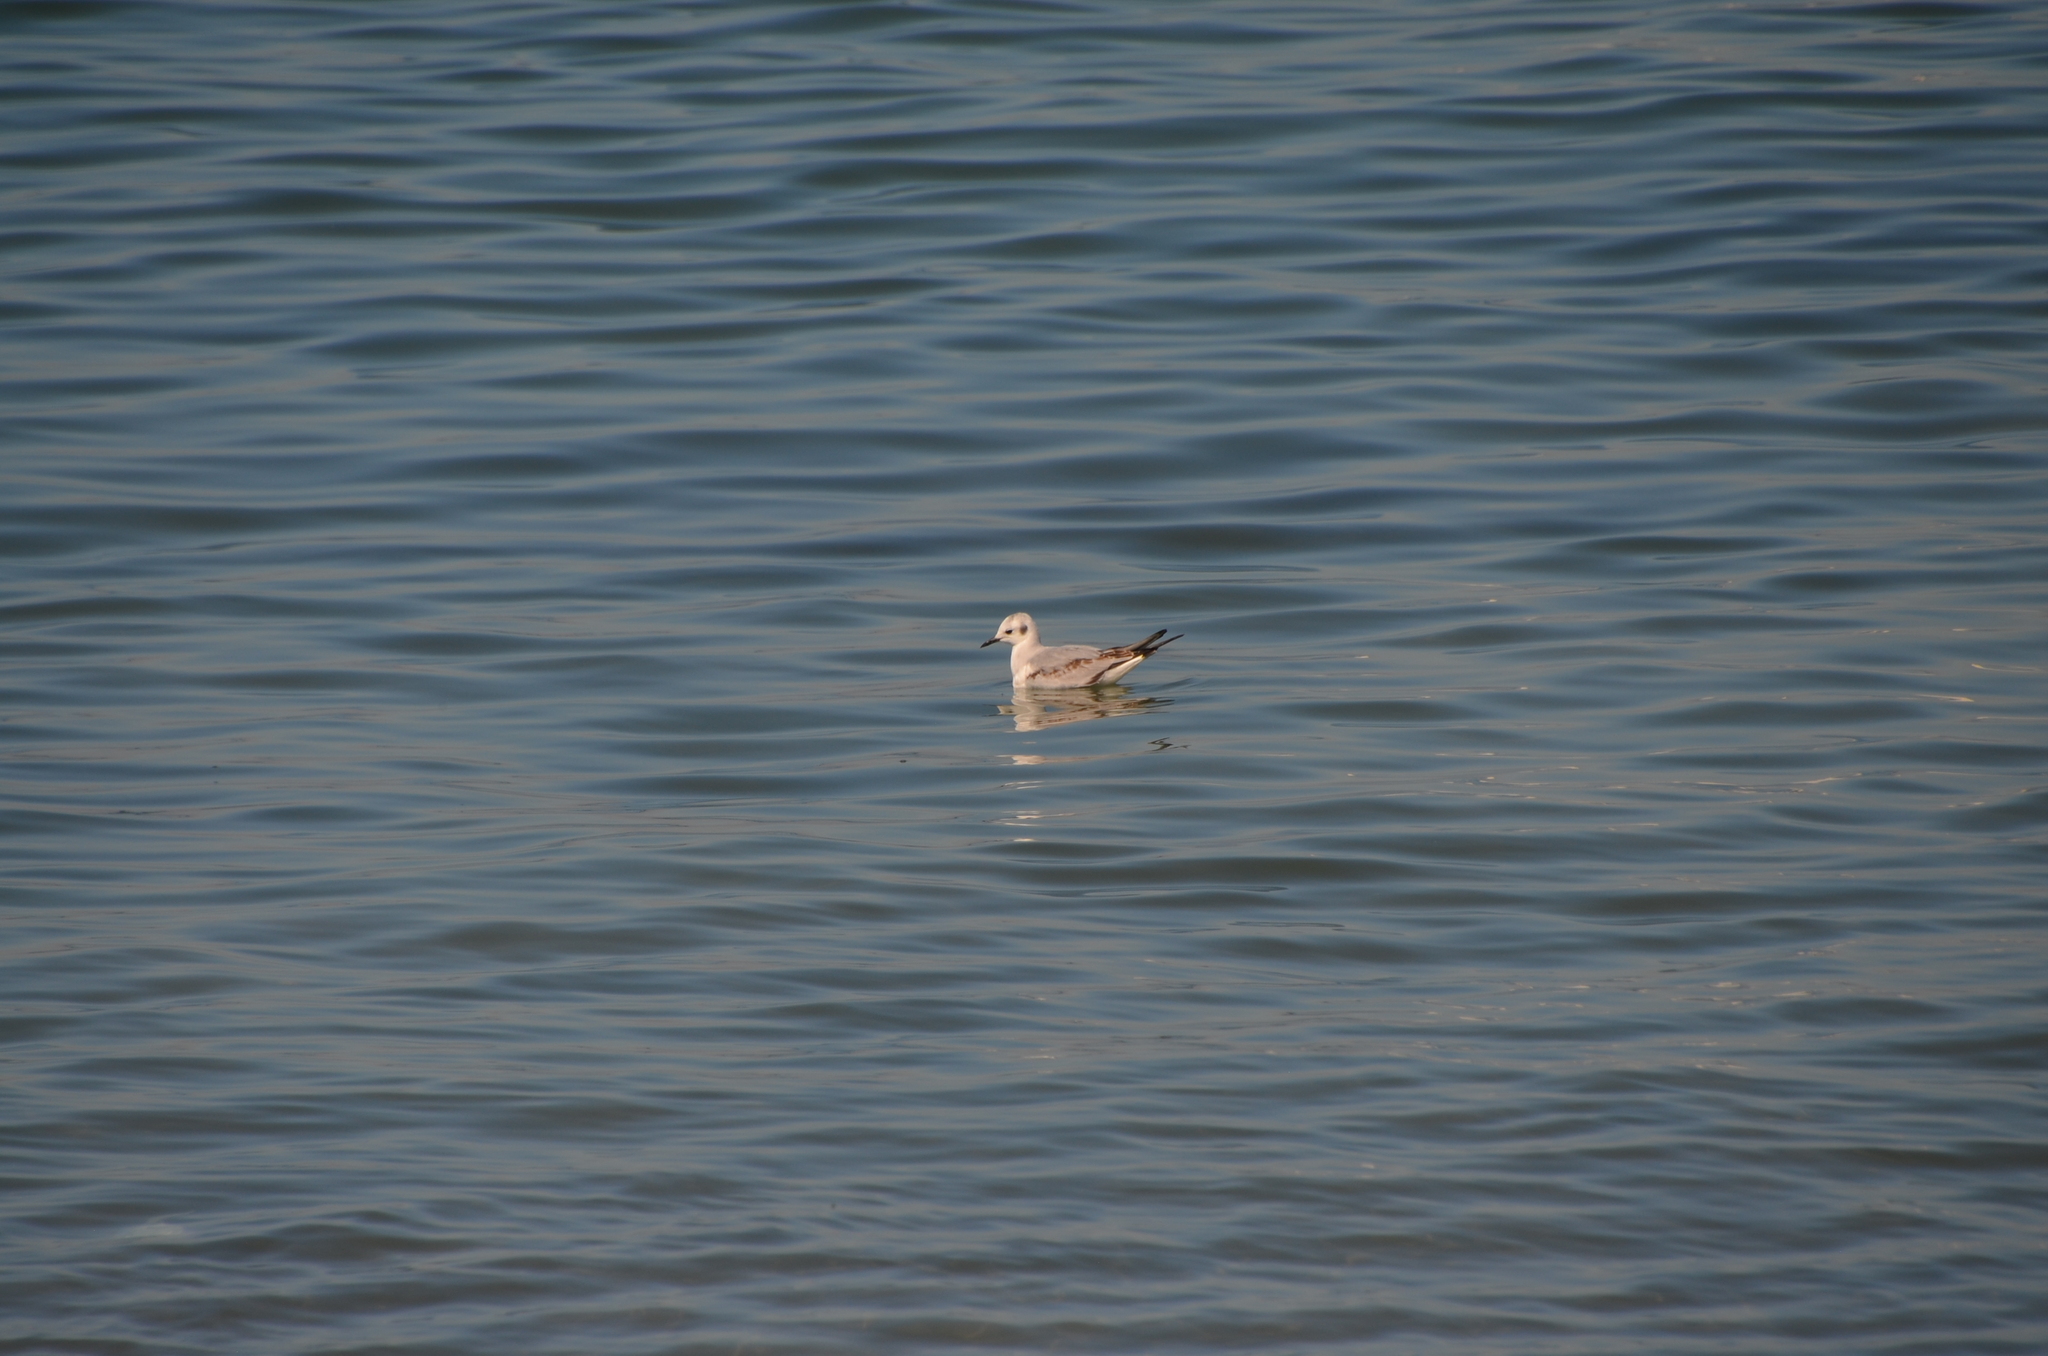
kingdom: Animalia
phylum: Chordata
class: Aves
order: Charadriiformes
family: Laridae
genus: Chroicocephalus
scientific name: Chroicocephalus philadelphia
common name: Bonaparte's gull
